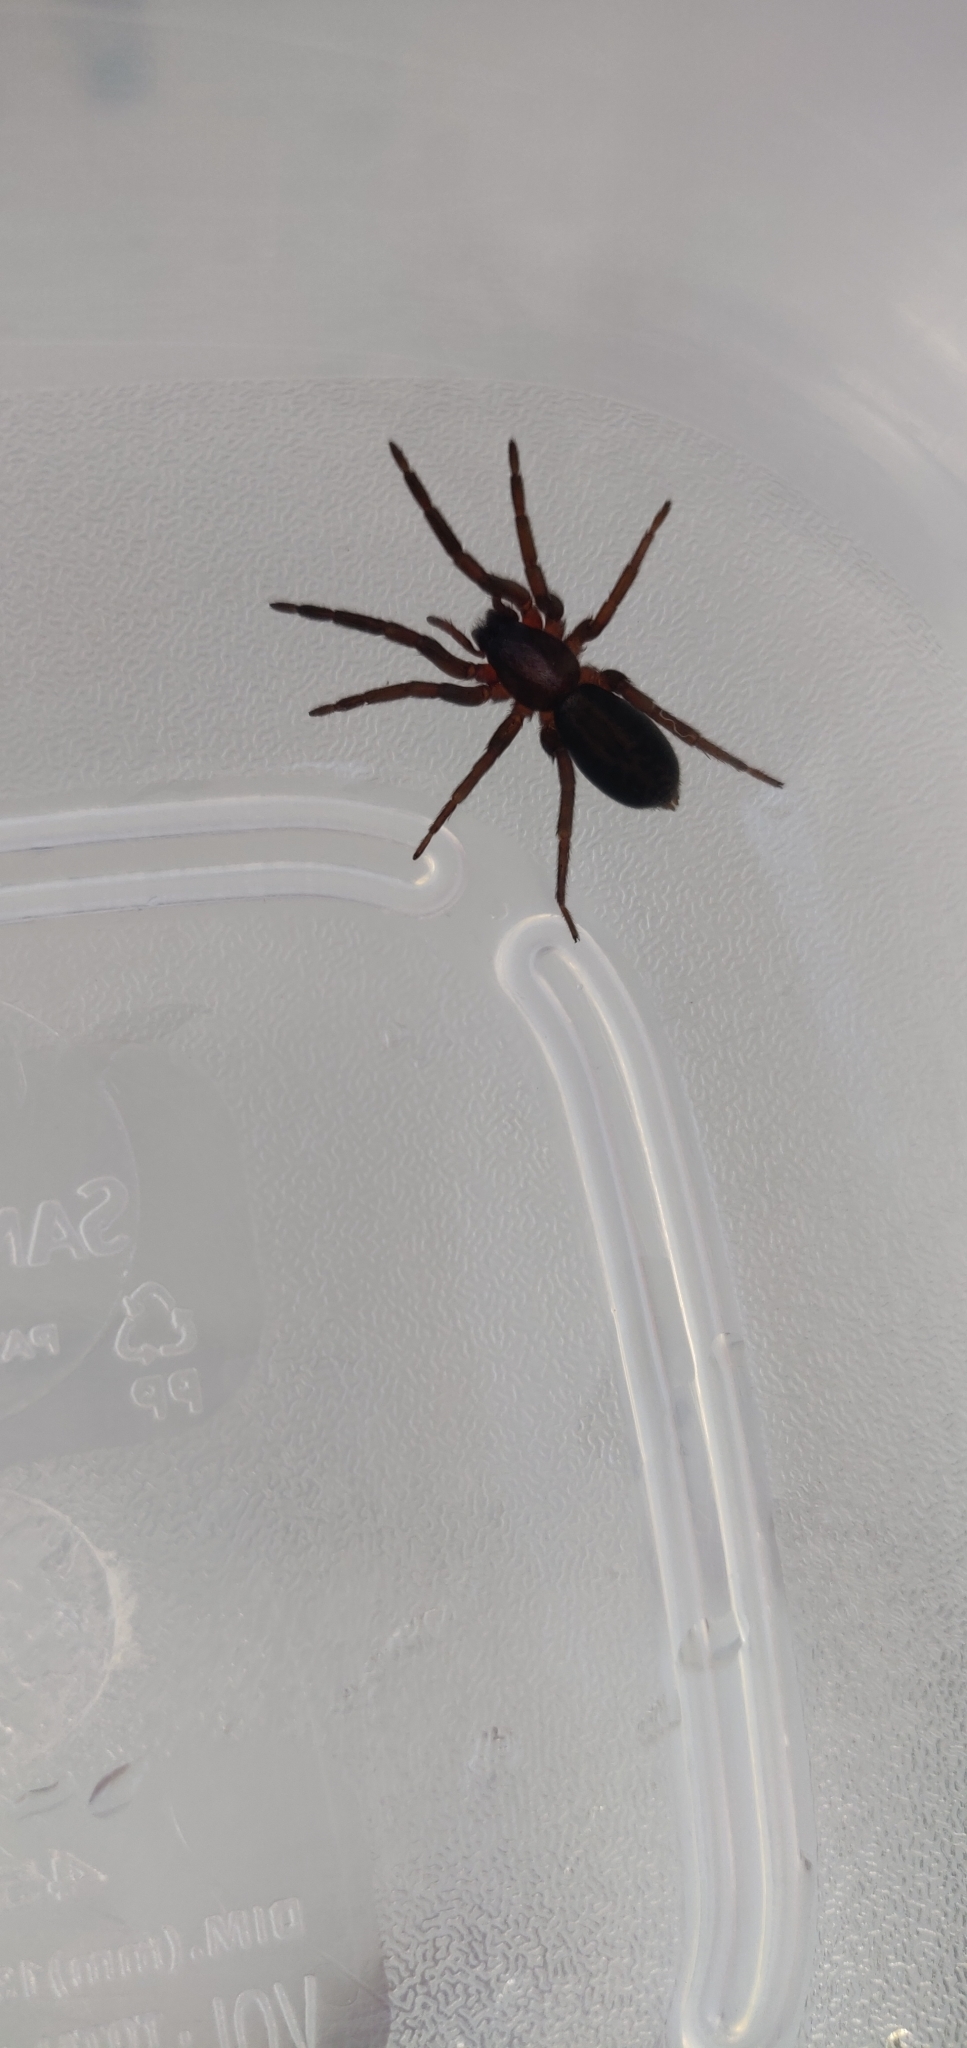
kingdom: Animalia
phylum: Arthropoda
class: Arachnida
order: Araneae
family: Miturgidae
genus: Teminius
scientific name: Teminius insularis
